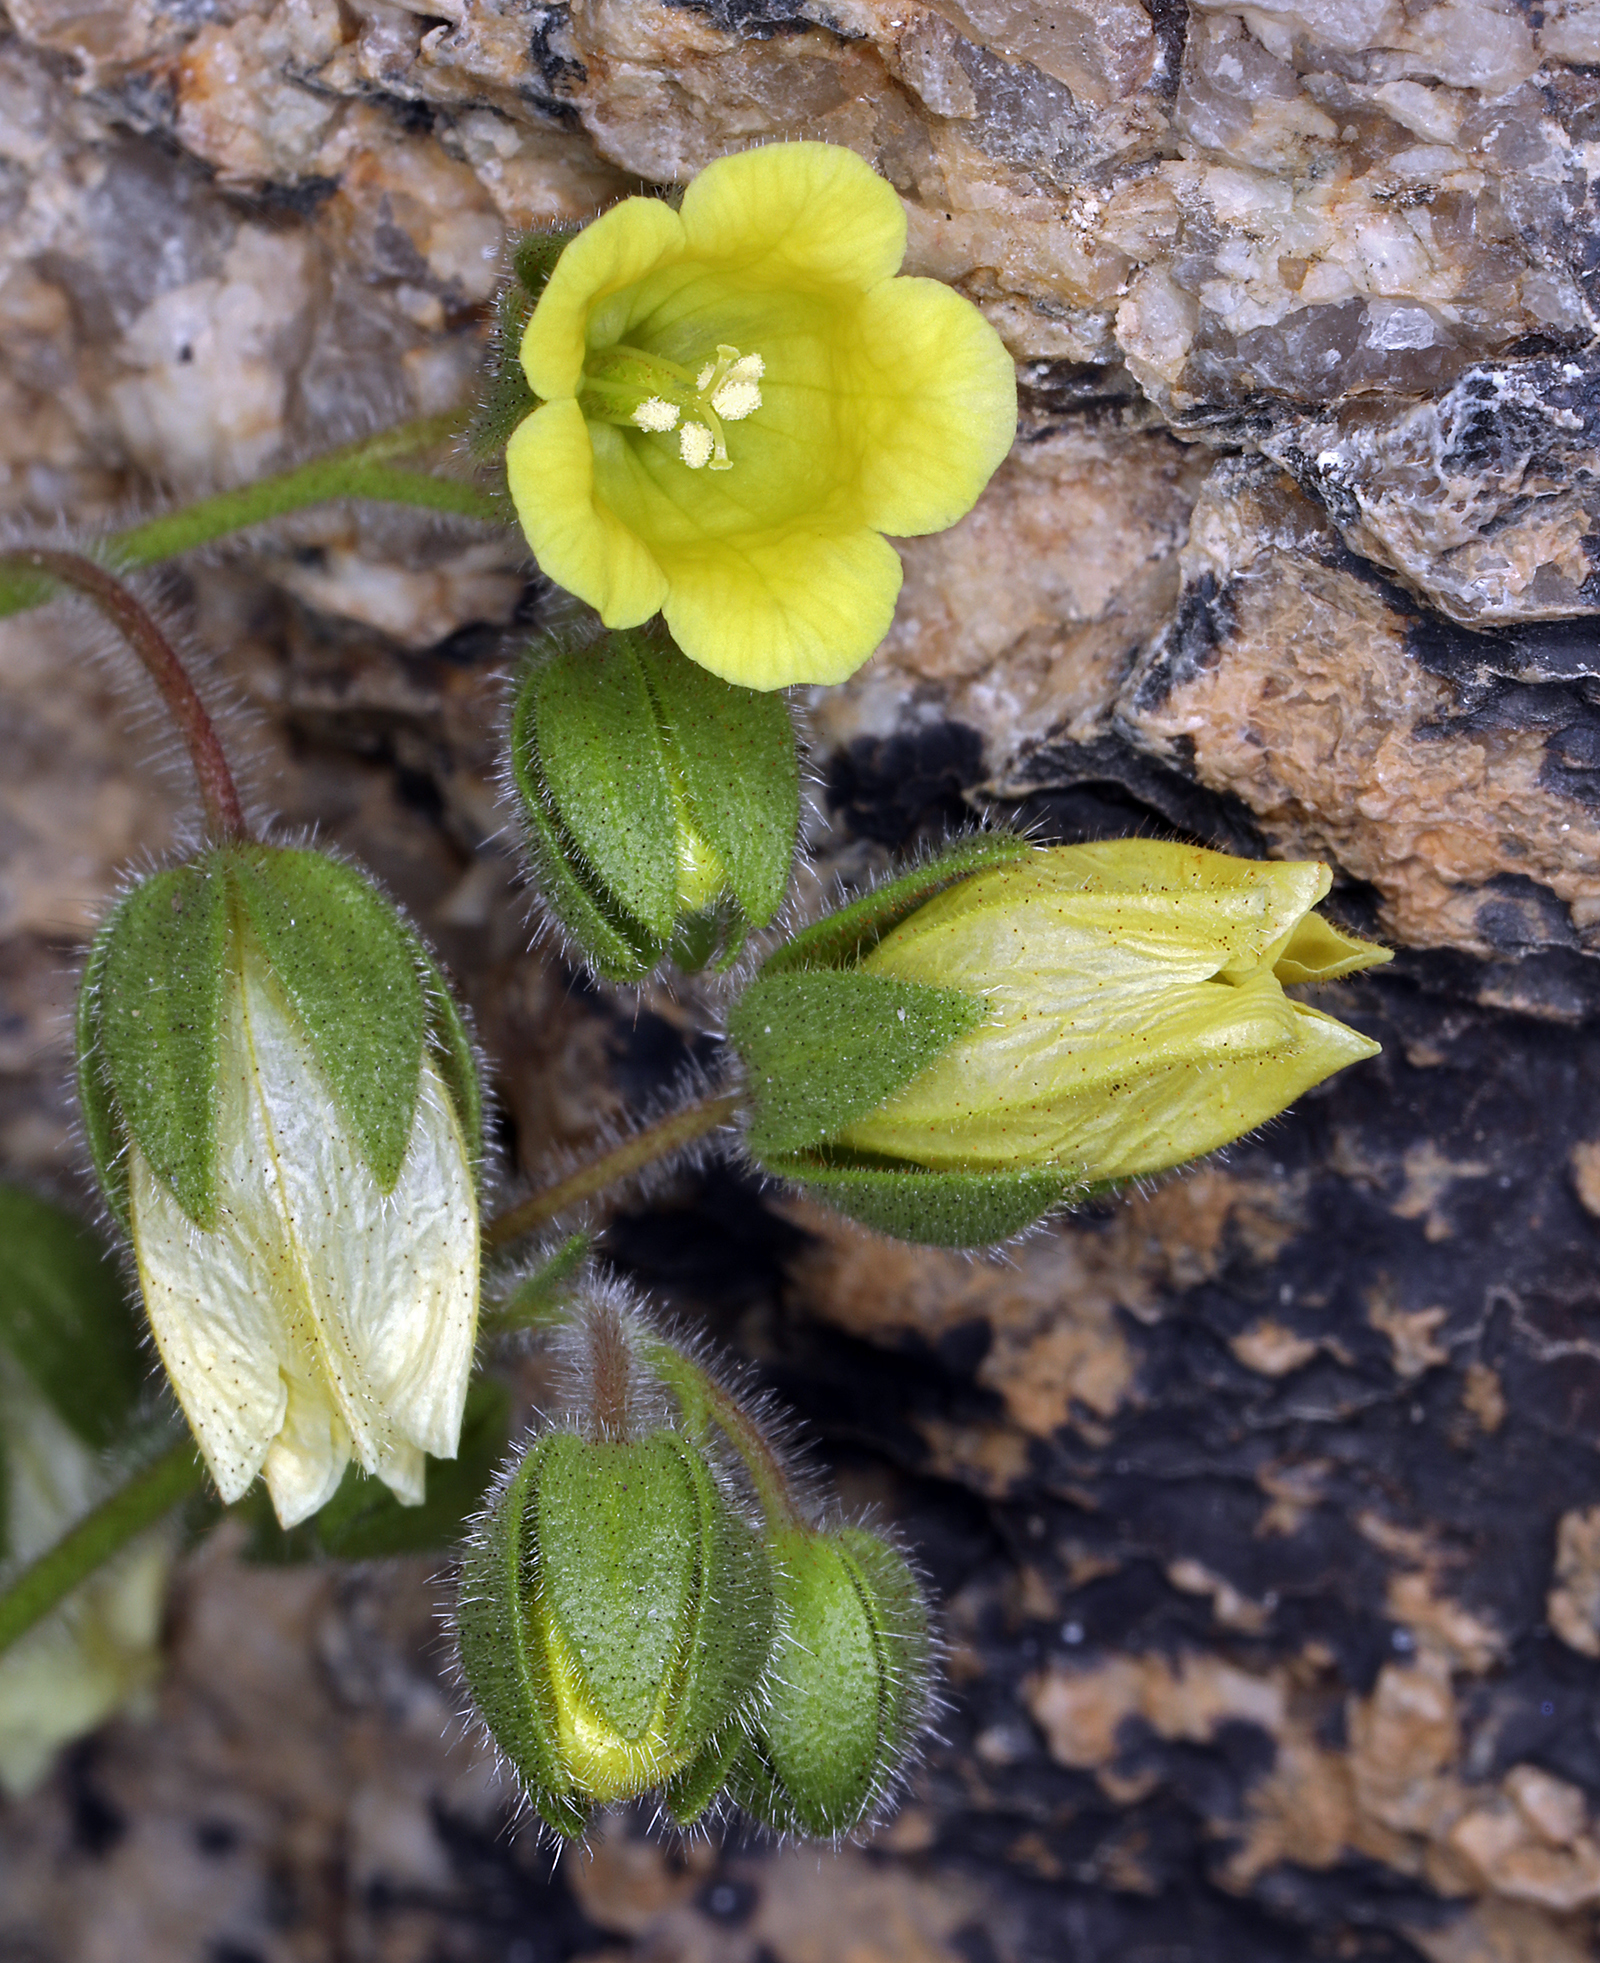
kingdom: Plantae
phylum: Tracheophyta
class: Magnoliopsida
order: Boraginales
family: Hydrophyllaceae
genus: Emmenanthe
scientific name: Emmenanthe penduliflora
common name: Whispering-bells
